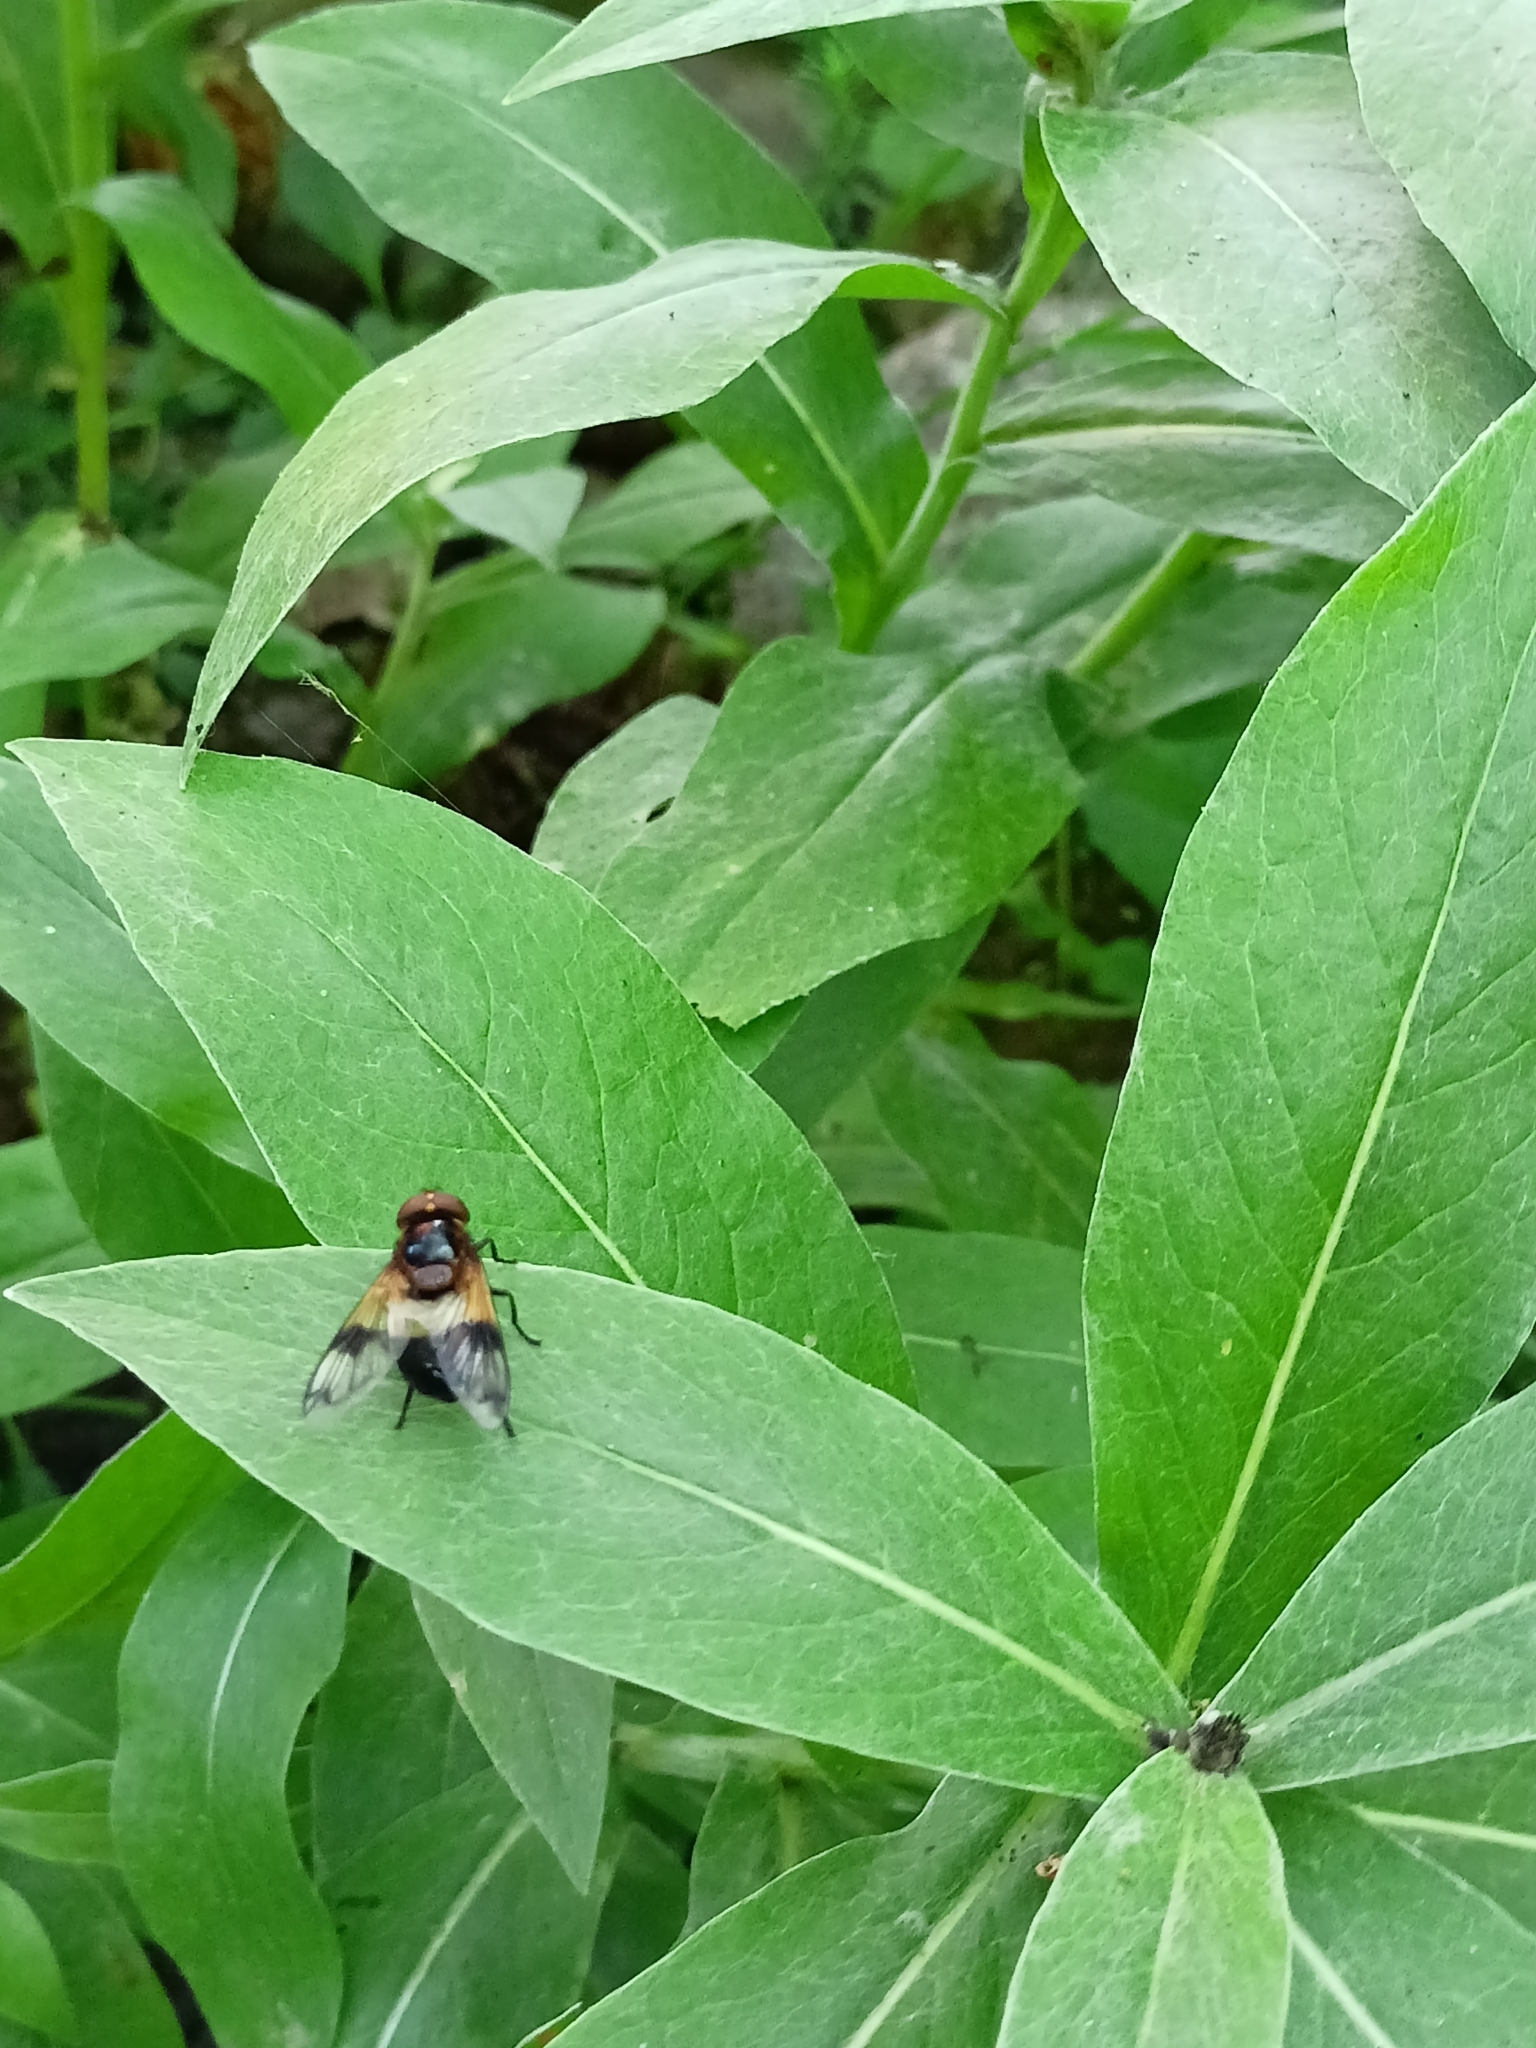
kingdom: Animalia
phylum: Arthropoda
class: Insecta
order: Diptera
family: Syrphidae
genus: Volucella
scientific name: Volucella pellucens
